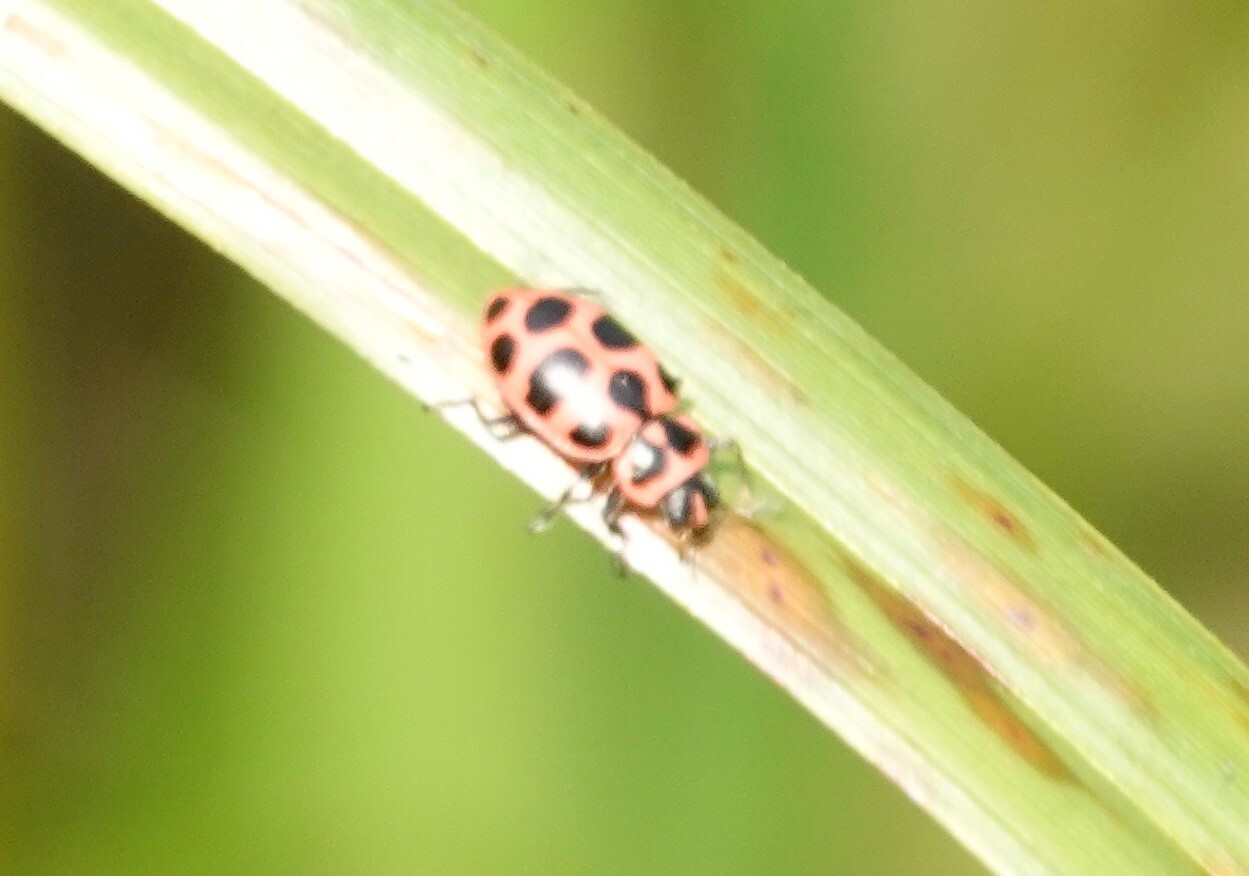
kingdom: Animalia
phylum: Arthropoda
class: Insecta
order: Coleoptera
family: Coccinellidae
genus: Coleomegilla
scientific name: Coleomegilla maculata
